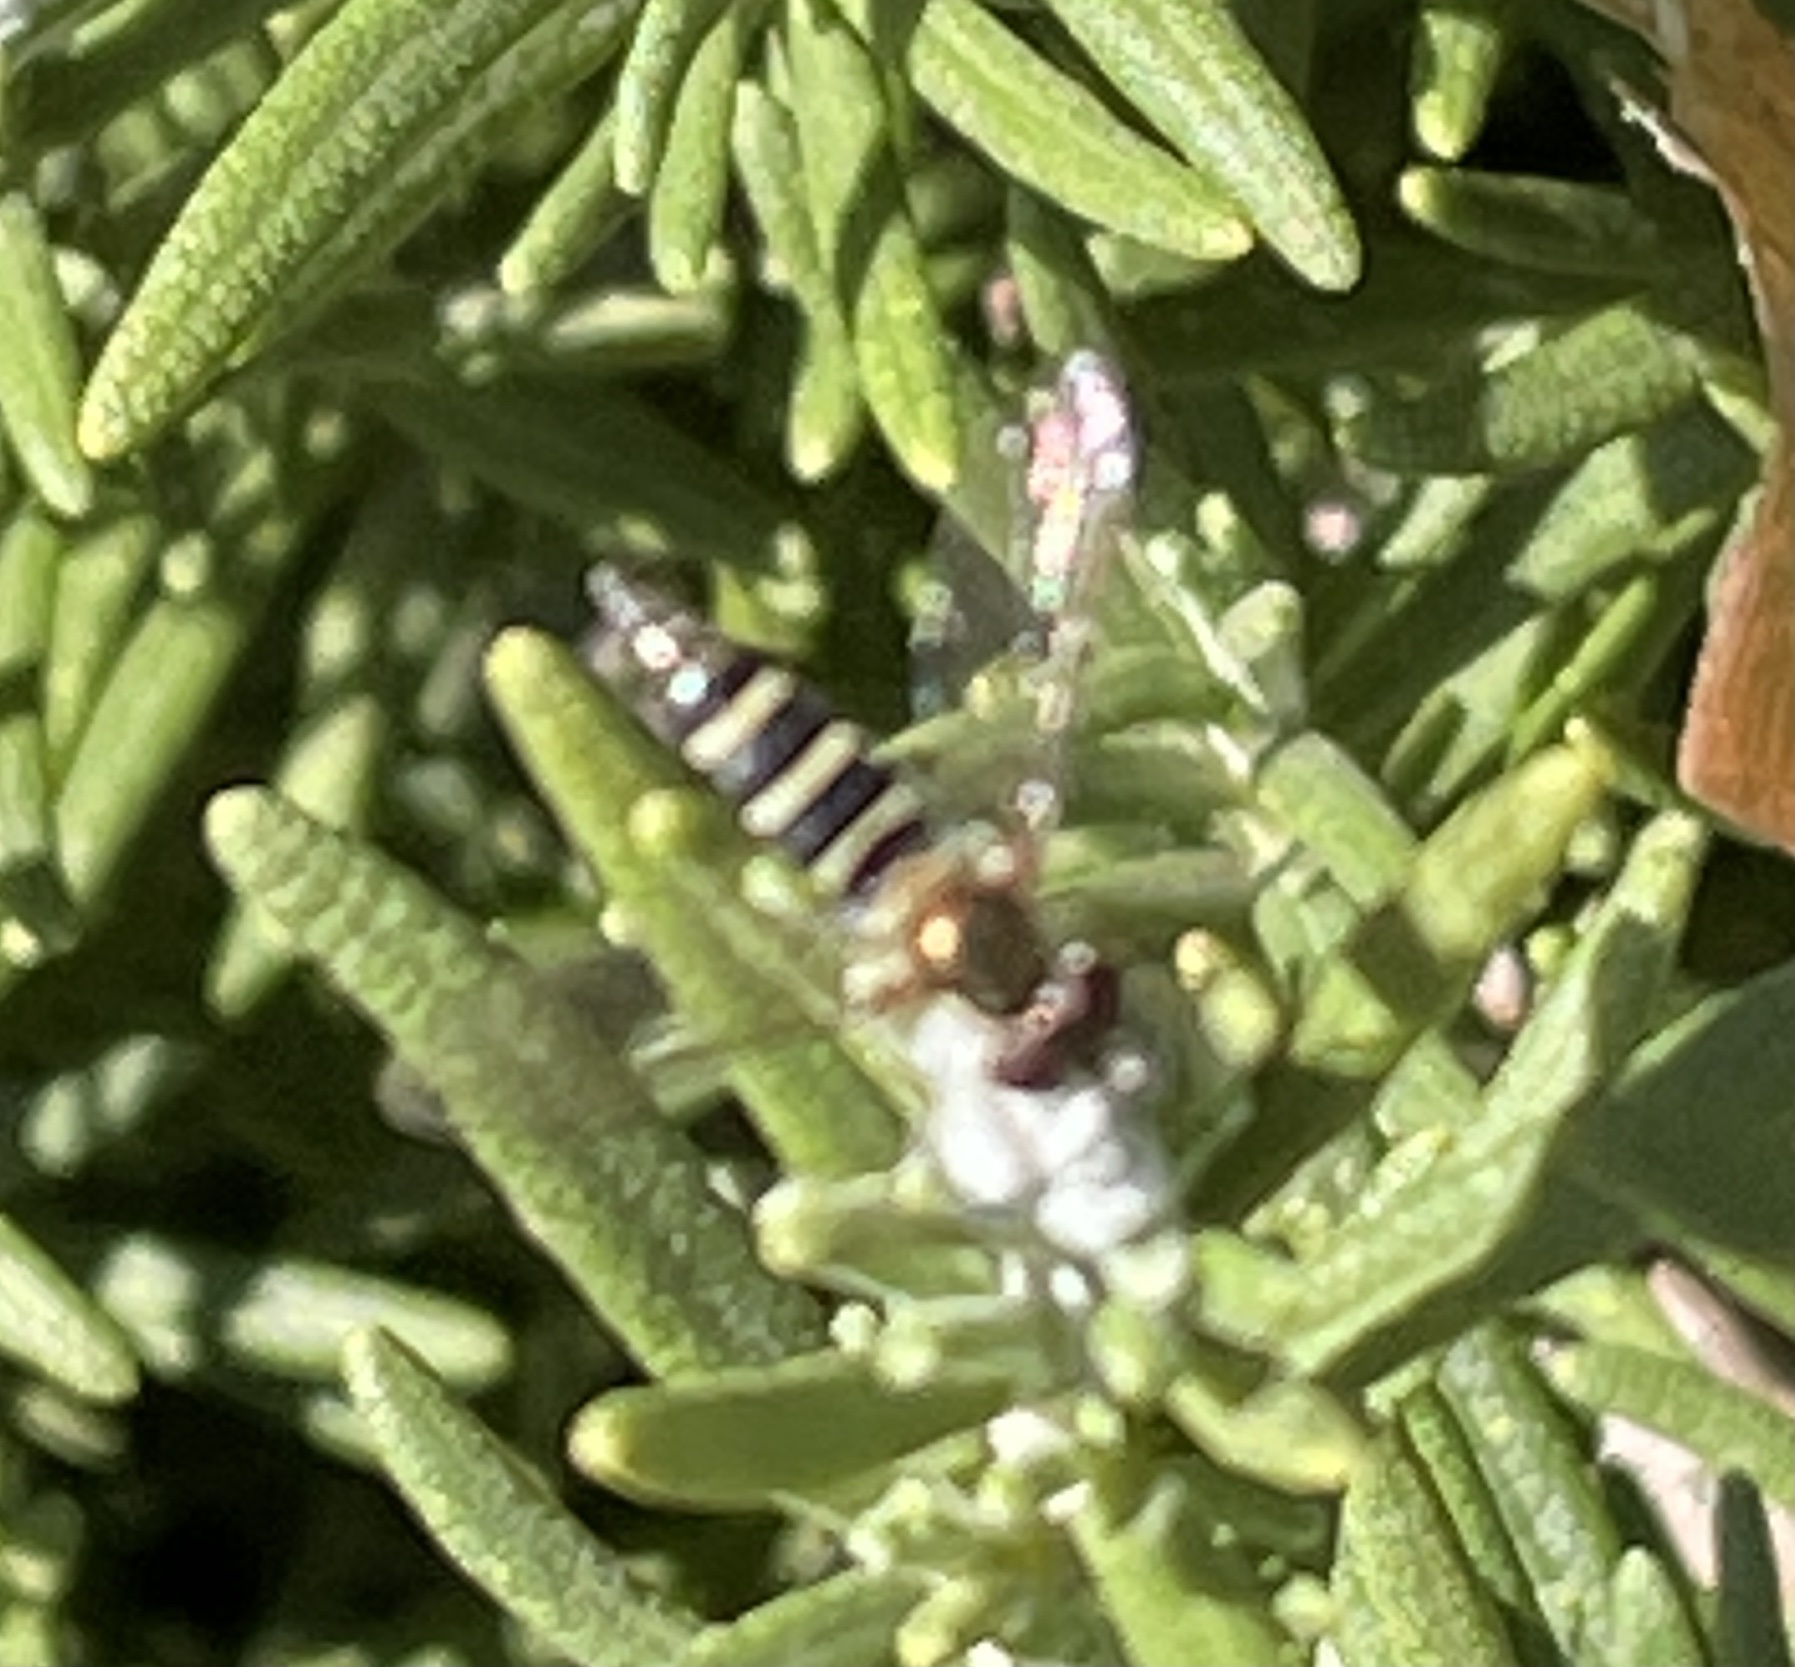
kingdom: Animalia
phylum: Arthropoda
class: Insecta
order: Diptera
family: Syrphidae
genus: Fazia
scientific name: Fazia micrura
